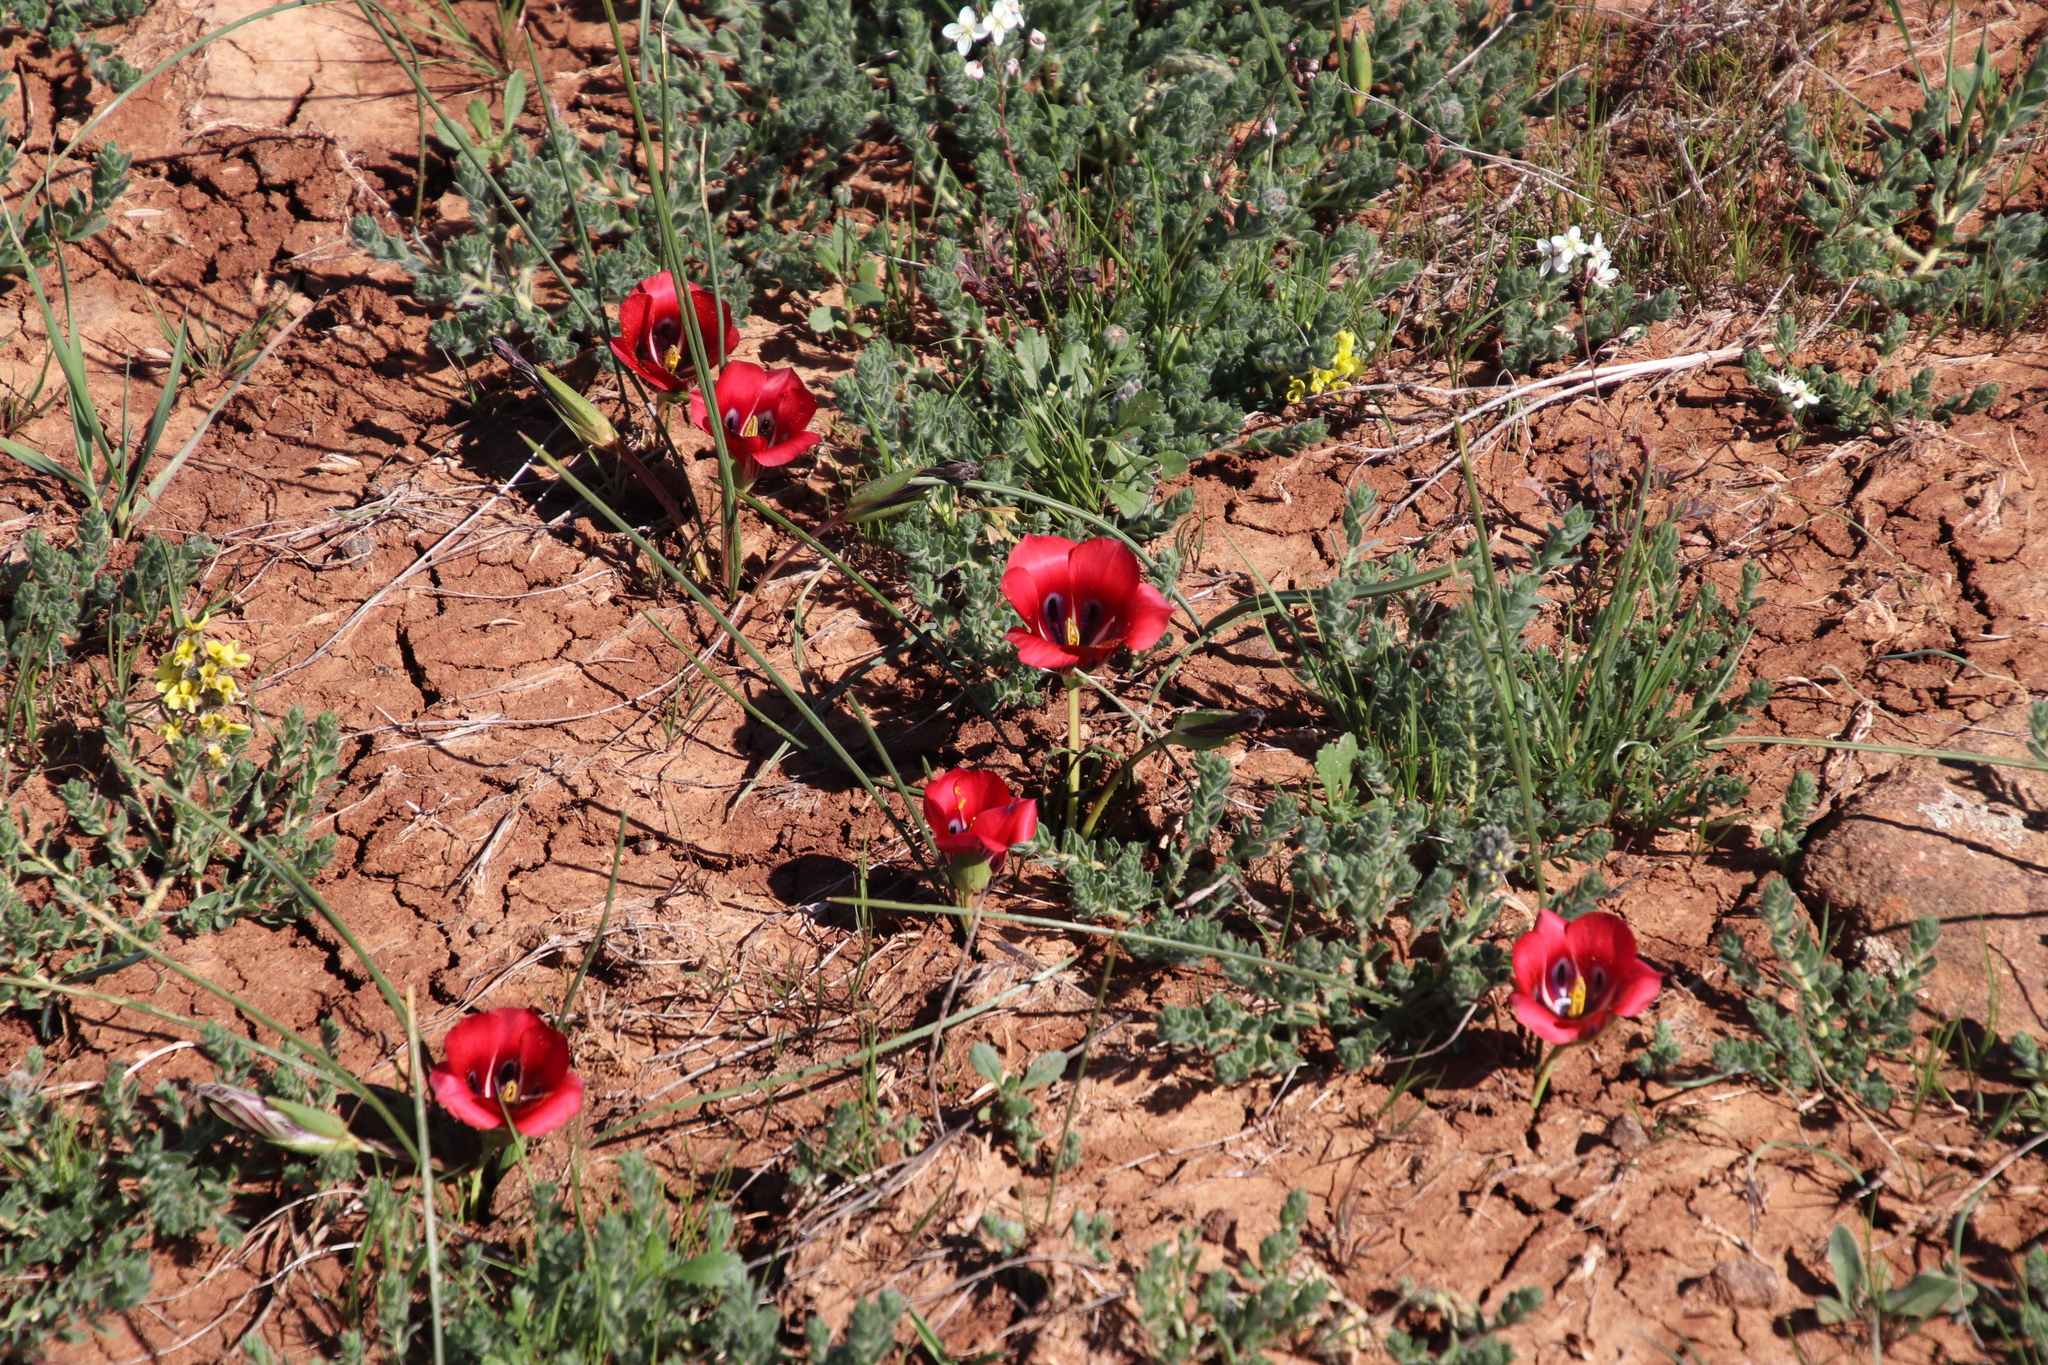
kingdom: Plantae
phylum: Tracheophyta
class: Liliopsida
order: Asparagales
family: Iridaceae
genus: Romulea
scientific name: Romulea monadelpha
